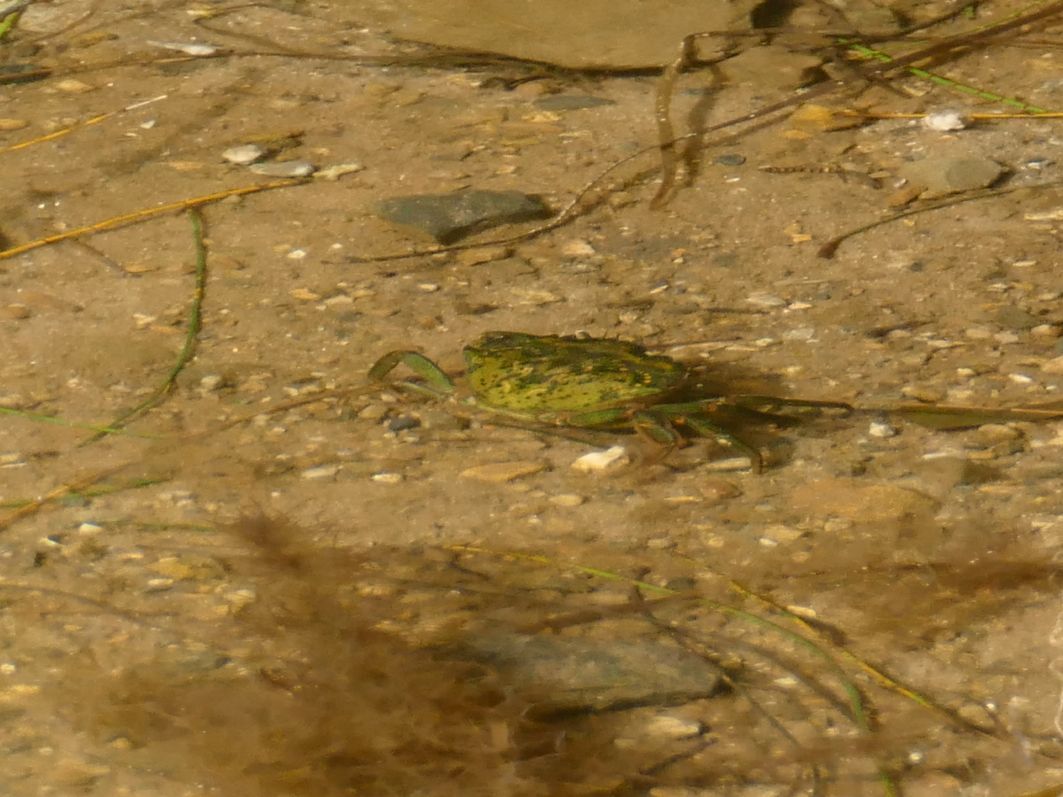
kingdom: Animalia
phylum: Arthropoda
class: Malacostraca
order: Decapoda
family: Carcinidae
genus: Carcinus
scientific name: Carcinus maenas
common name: European green crab
